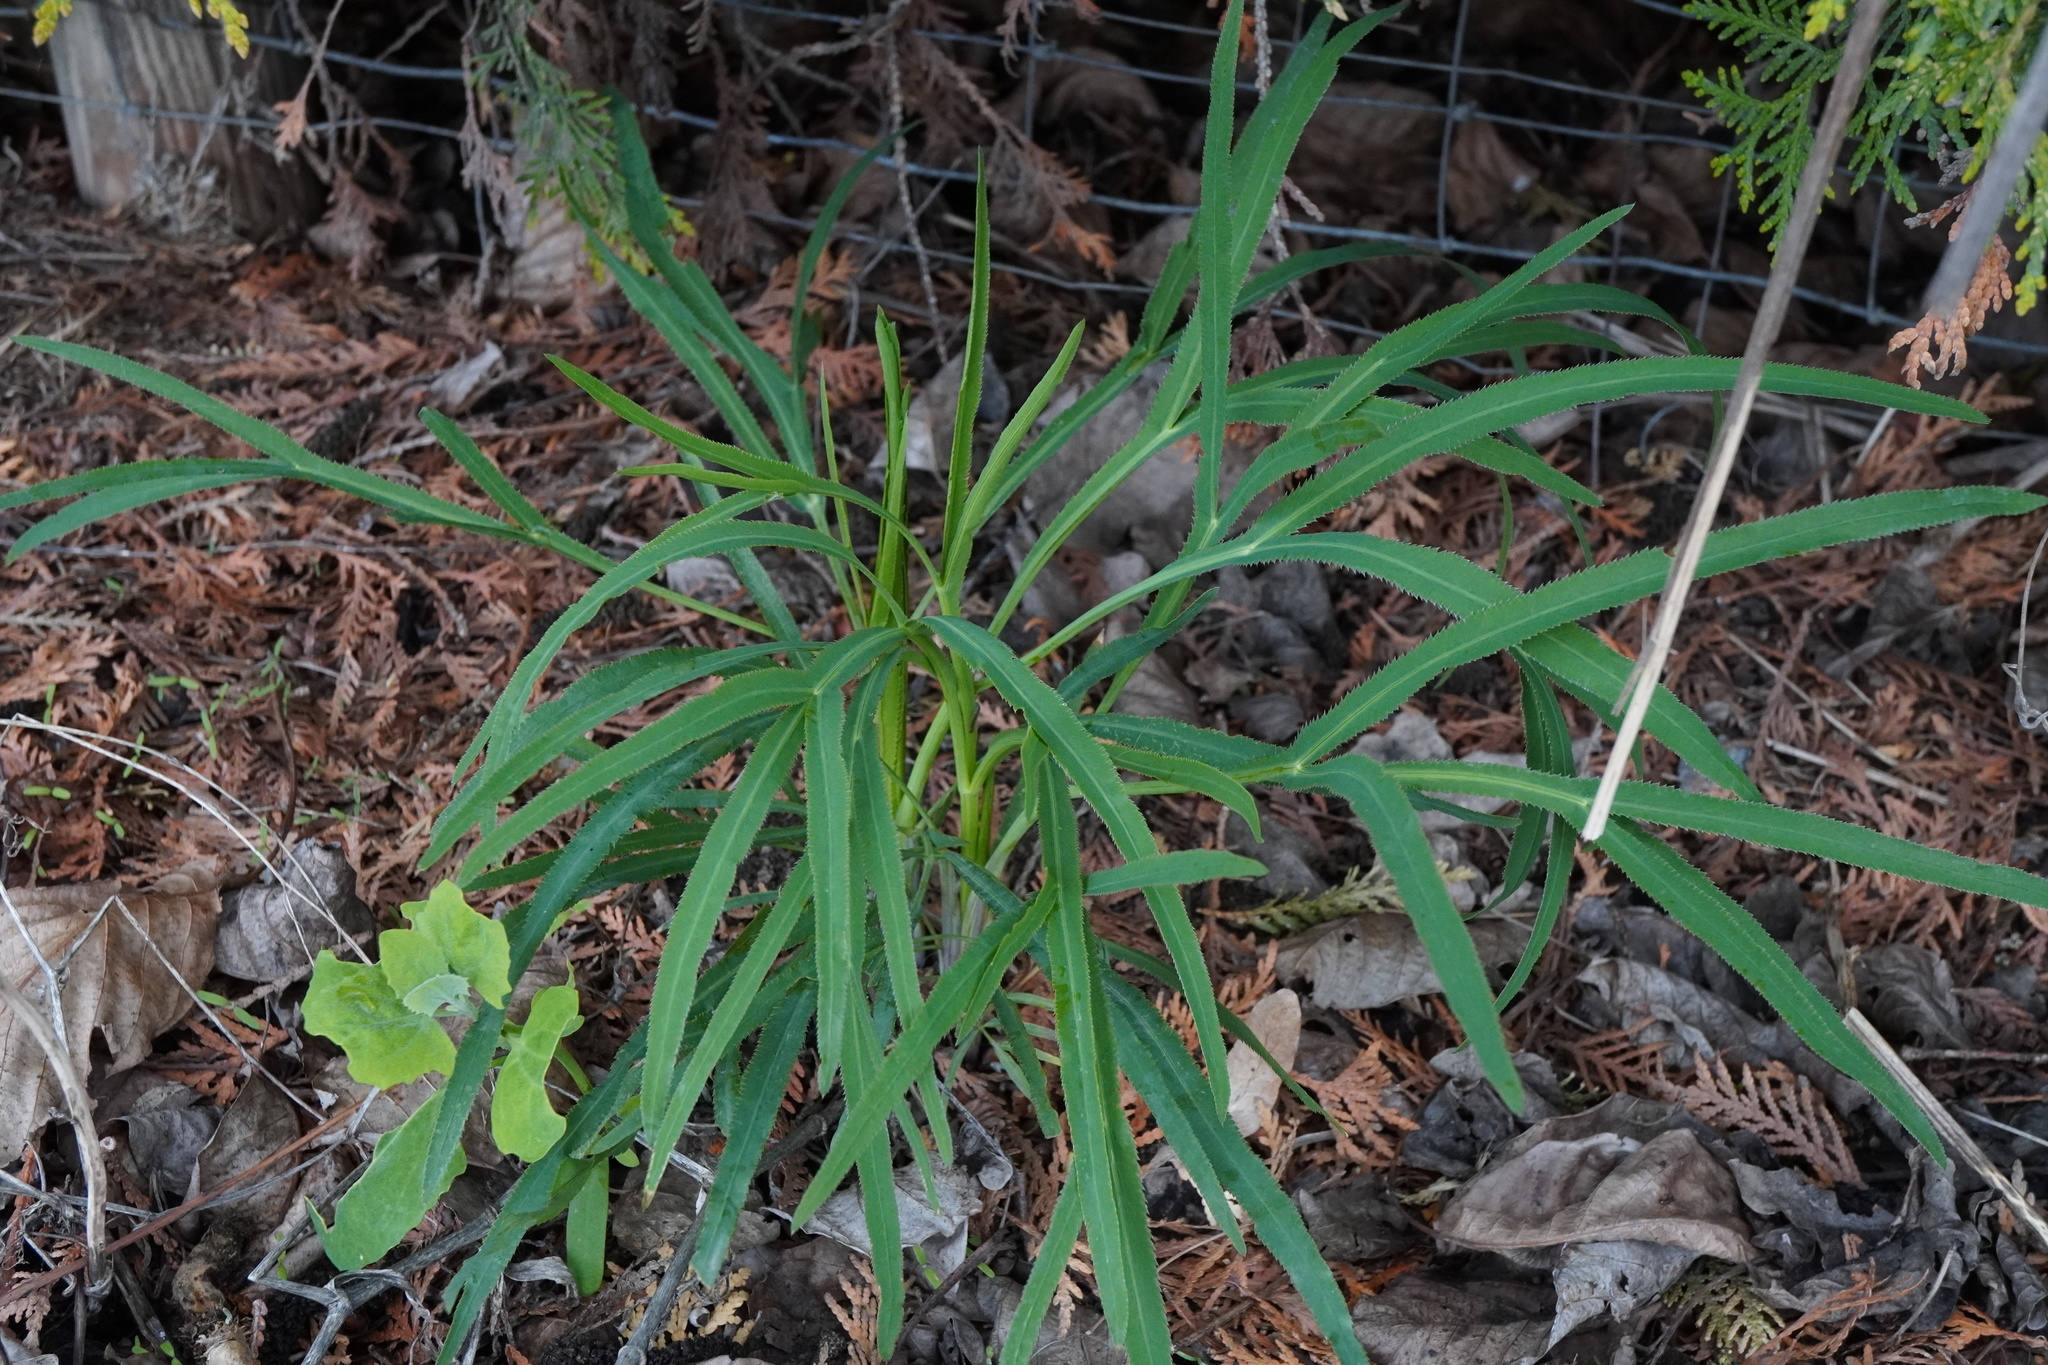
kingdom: Plantae
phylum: Tracheophyta
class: Magnoliopsida
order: Apiales
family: Apiaceae
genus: Falcaria
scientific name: Falcaria vulgaris
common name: Longleaf
